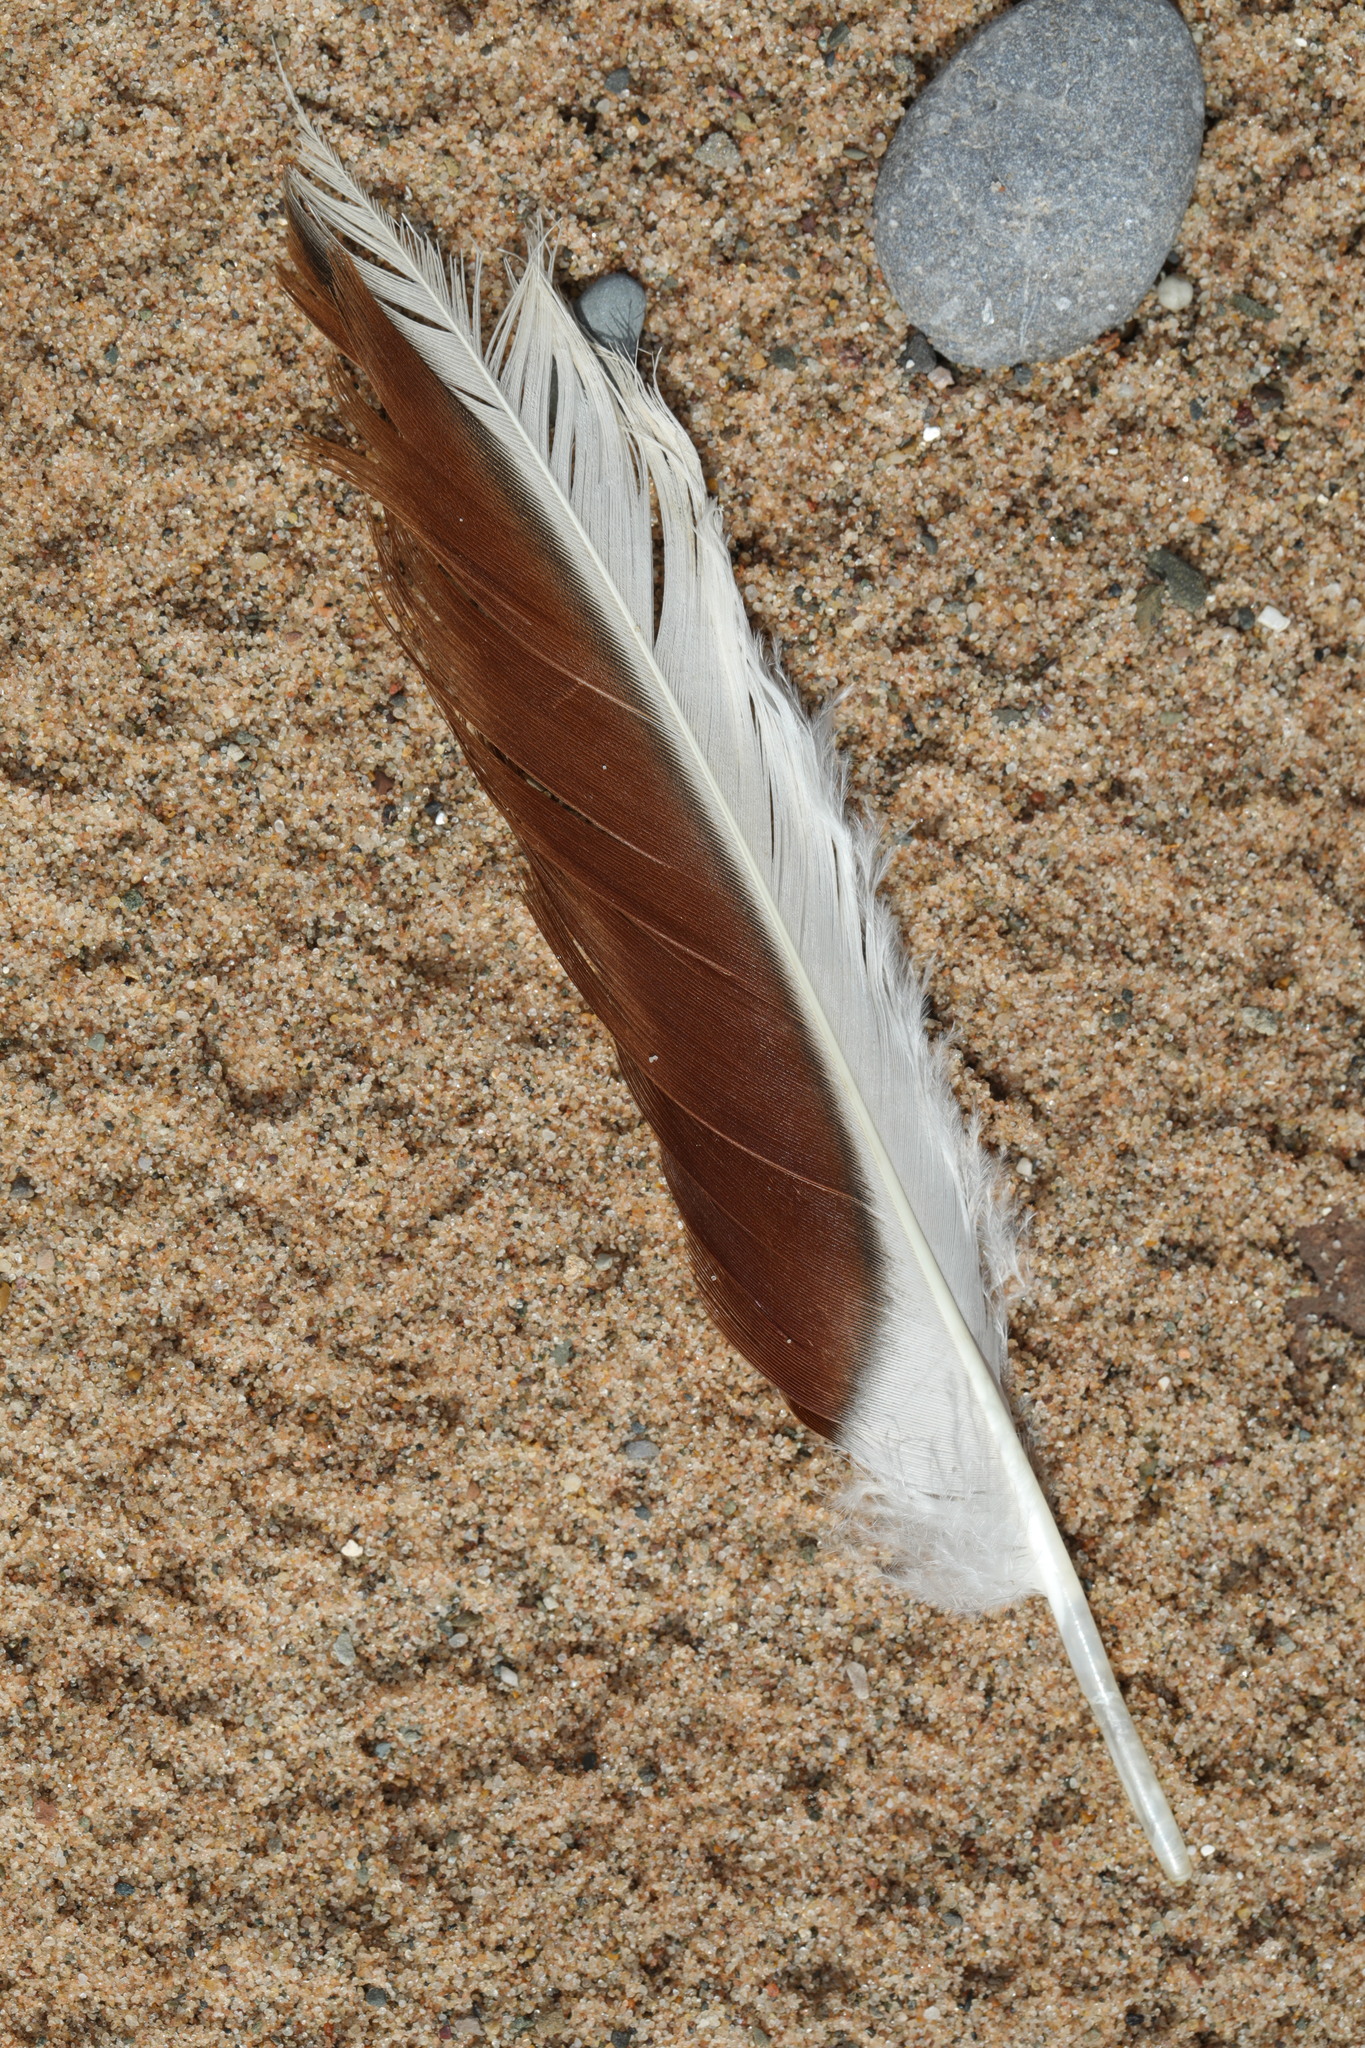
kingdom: Animalia
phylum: Chordata
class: Aves
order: Anseriformes
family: Anatidae
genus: Tadorna
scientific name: Tadorna tadorna
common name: Common shelduck
